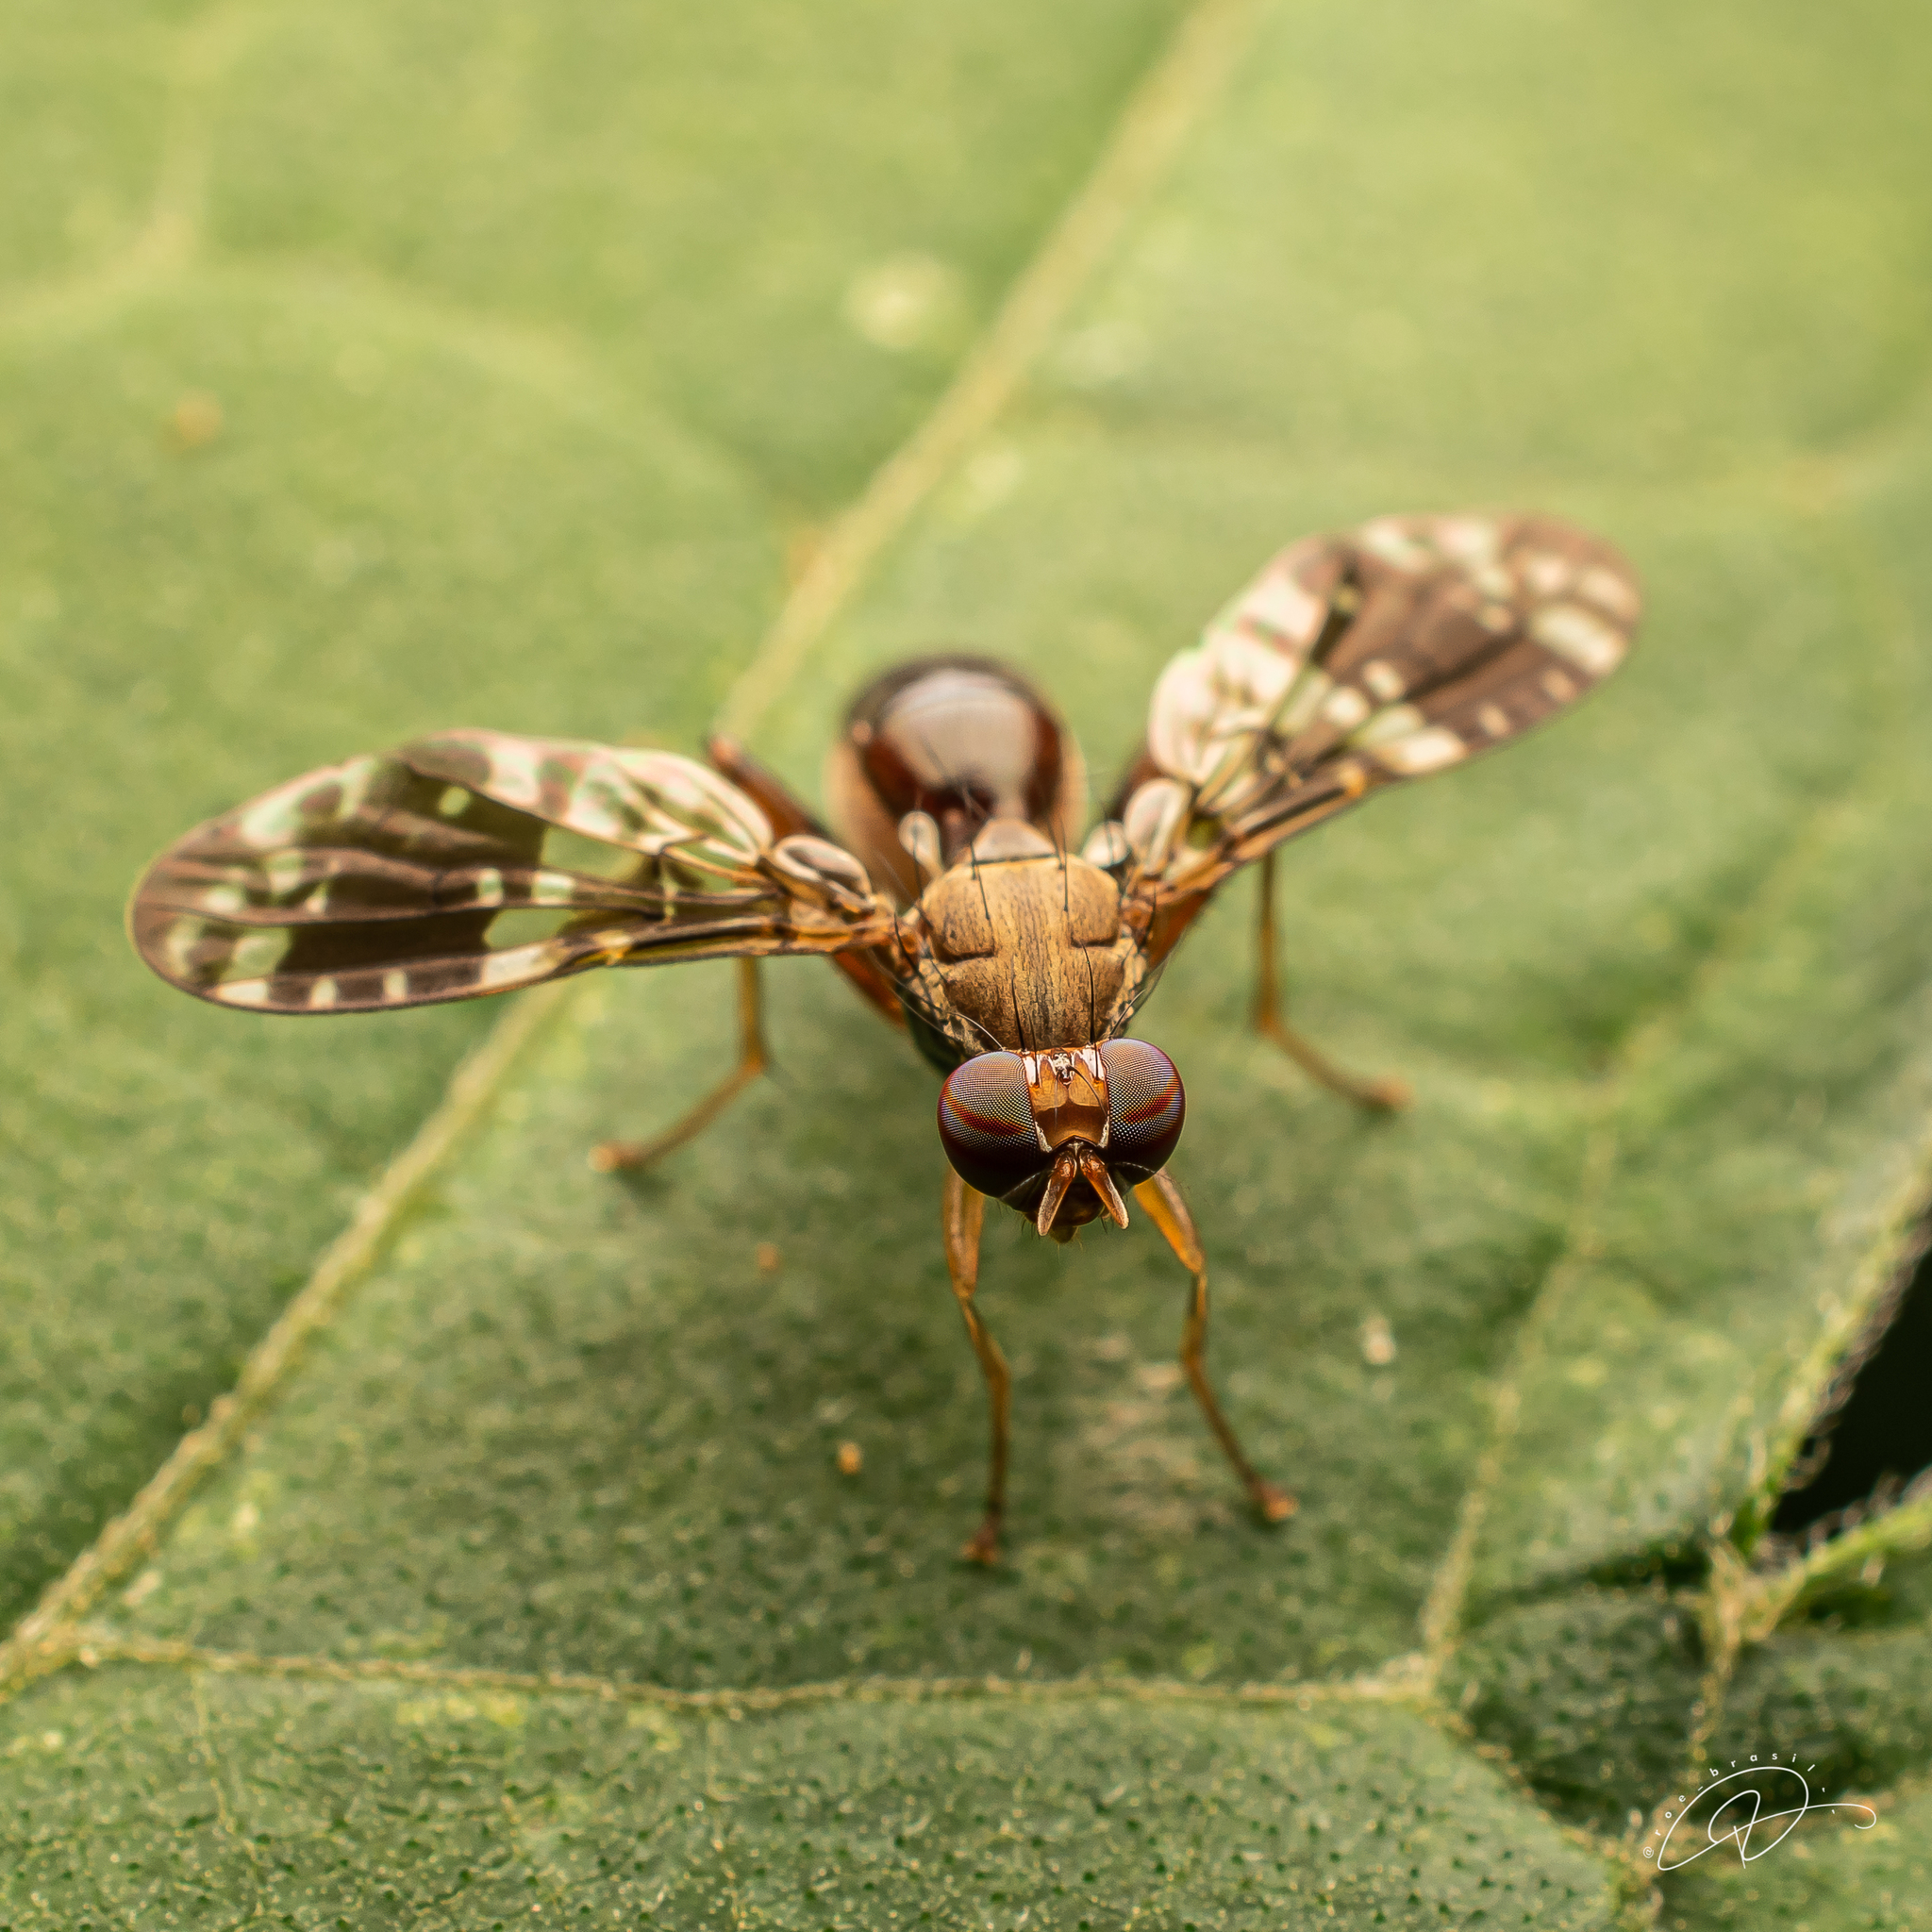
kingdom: Animalia
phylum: Arthropoda
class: Insecta
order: Diptera
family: Richardiidae
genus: Richardia
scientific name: Richardia tephritina
